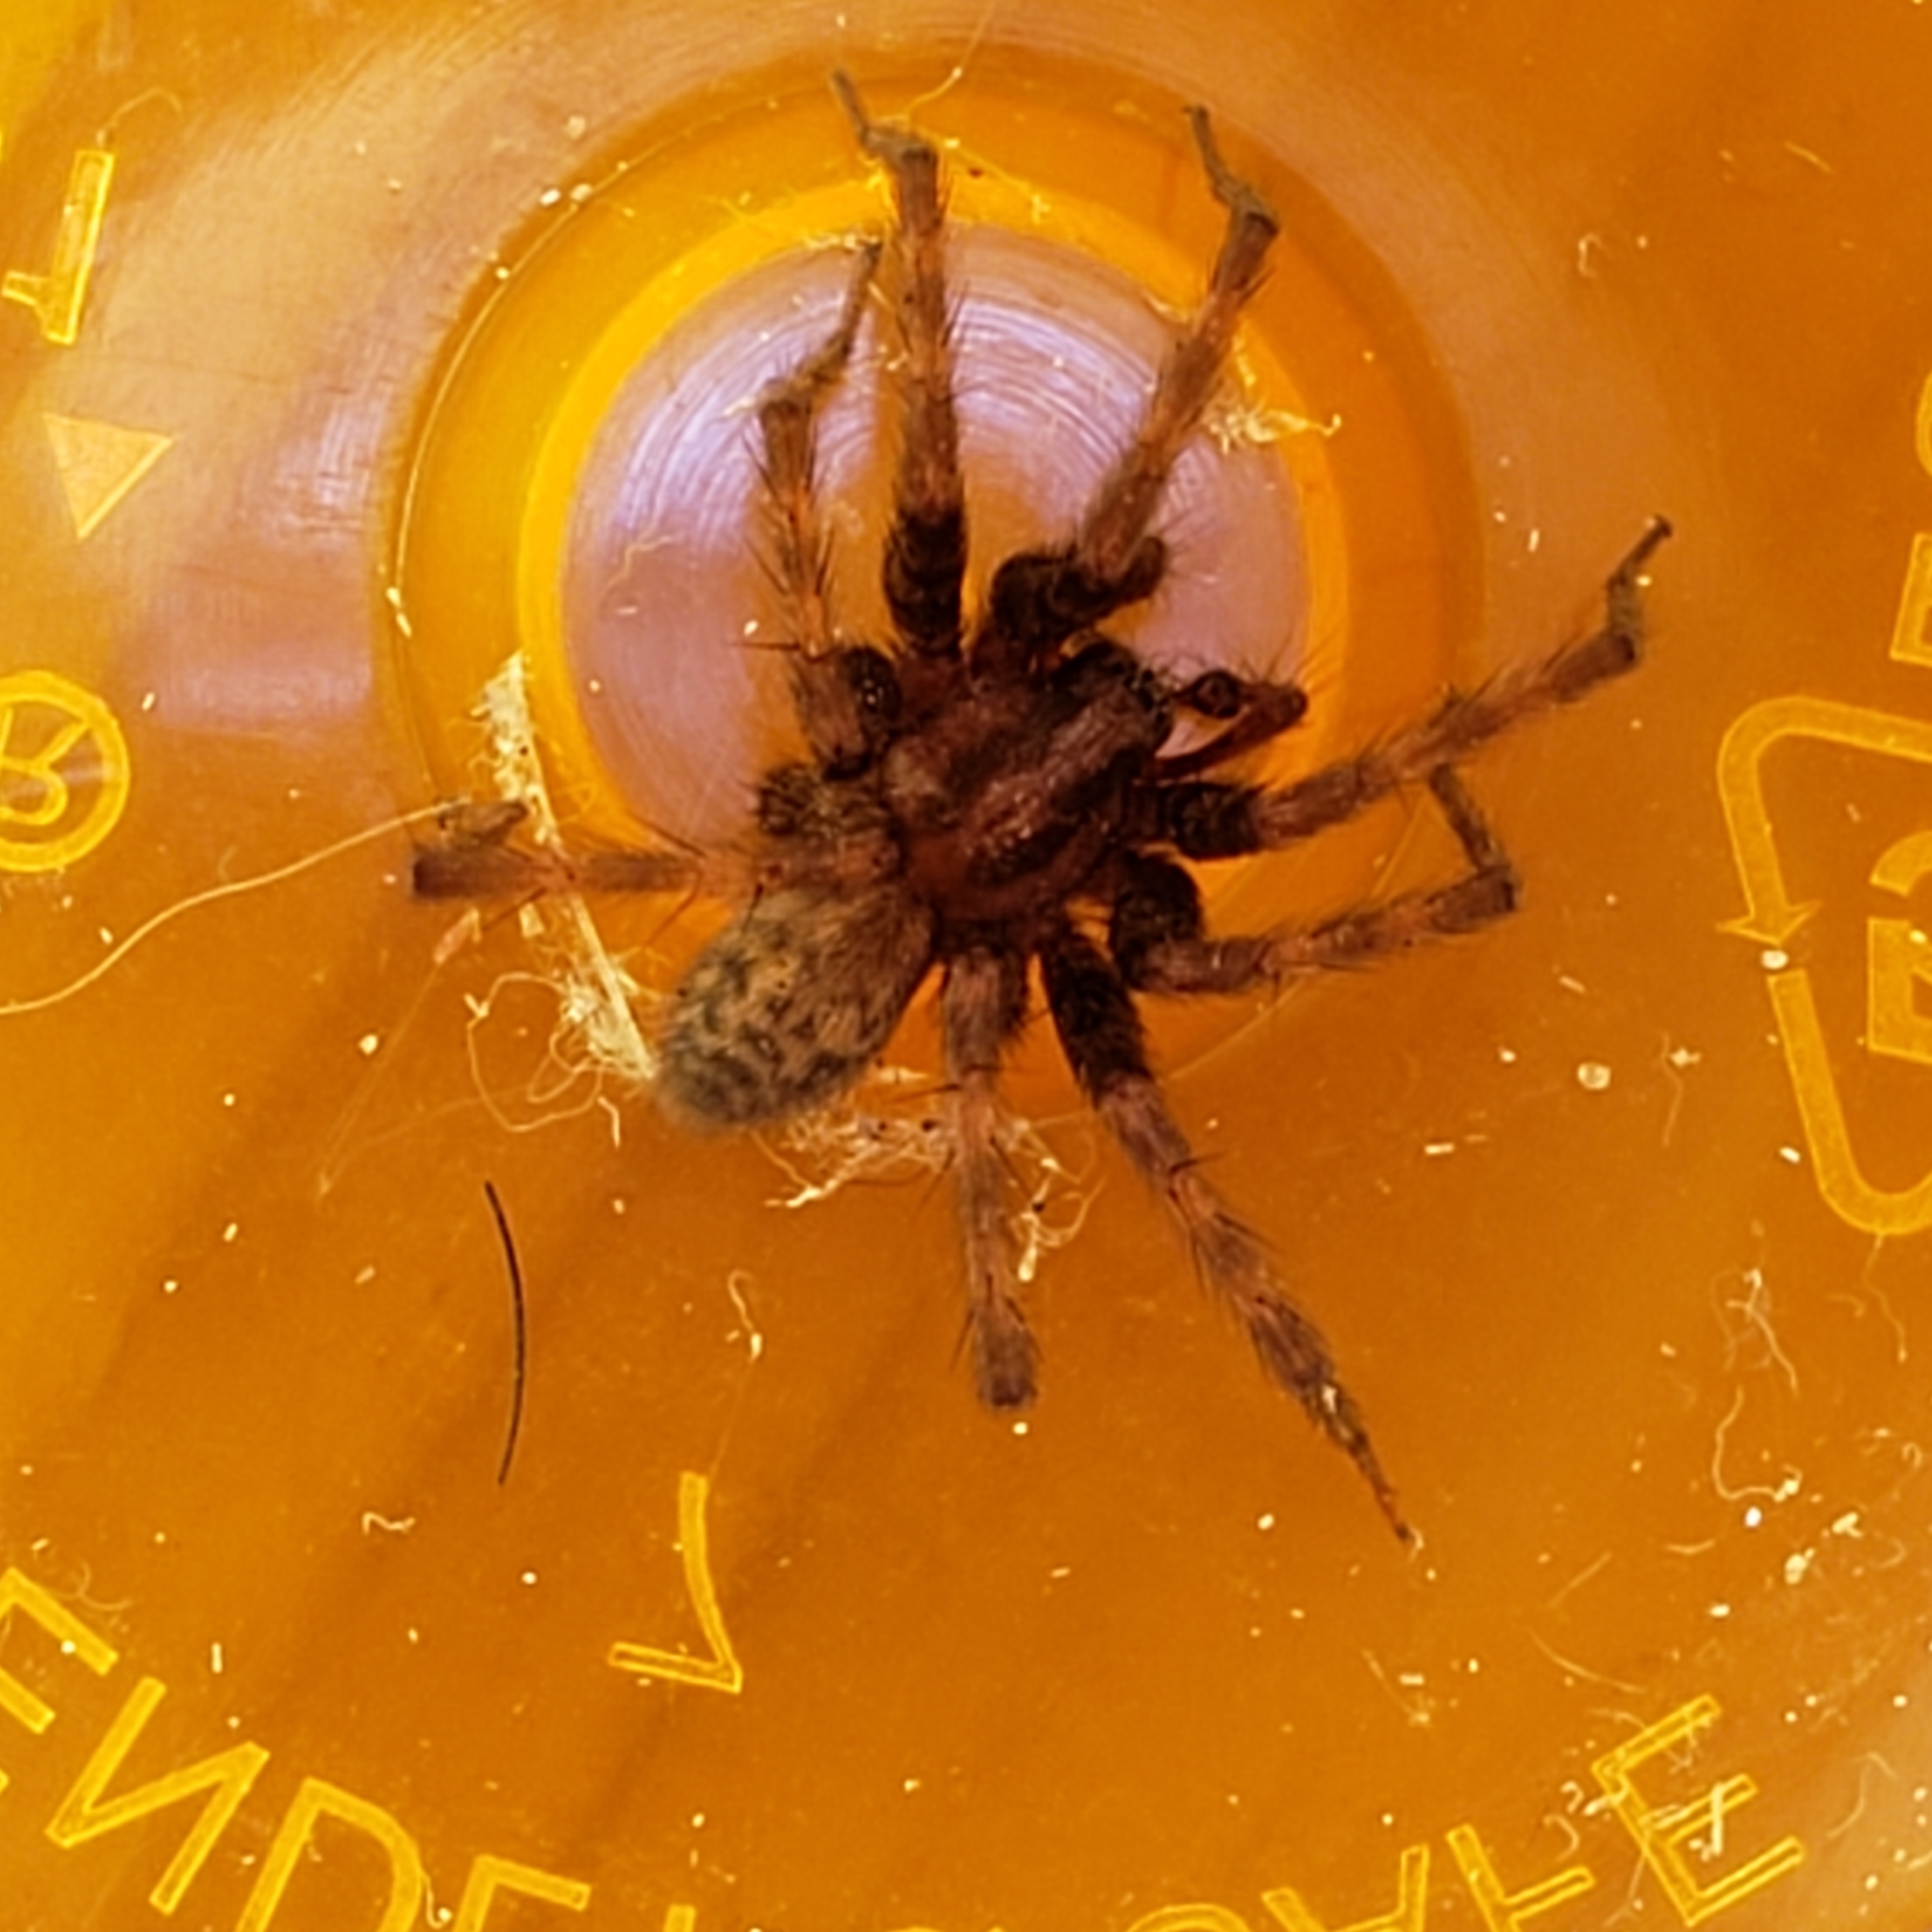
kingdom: Animalia
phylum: Arthropoda
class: Arachnida
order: Araneae
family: Agelenidae
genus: Tegenaria
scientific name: Tegenaria domestica
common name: Barn funnel weaver
